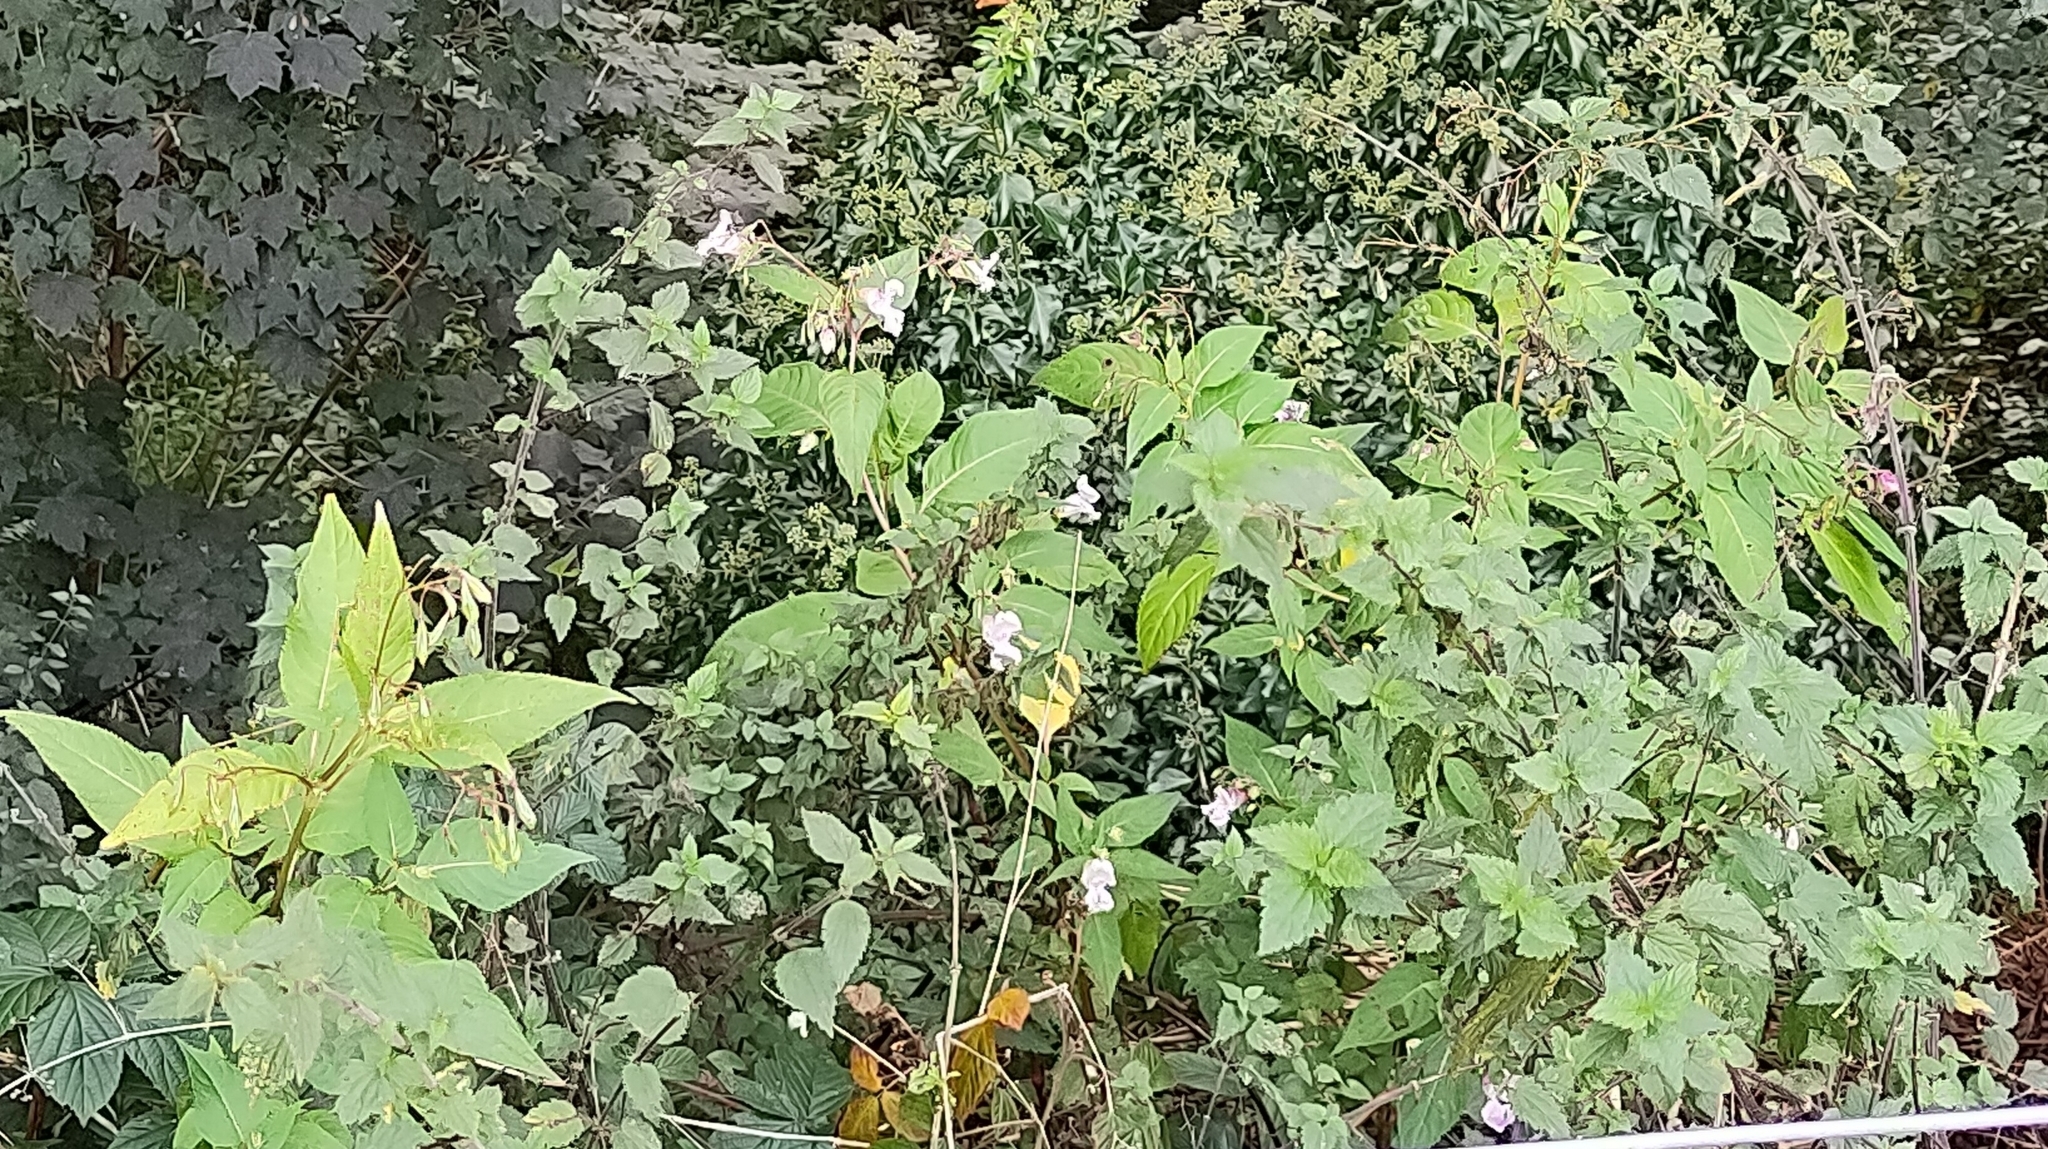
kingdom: Plantae
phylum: Tracheophyta
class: Magnoliopsida
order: Ericales
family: Balsaminaceae
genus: Impatiens
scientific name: Impatiens glandulifera
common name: Himalayan balsam
